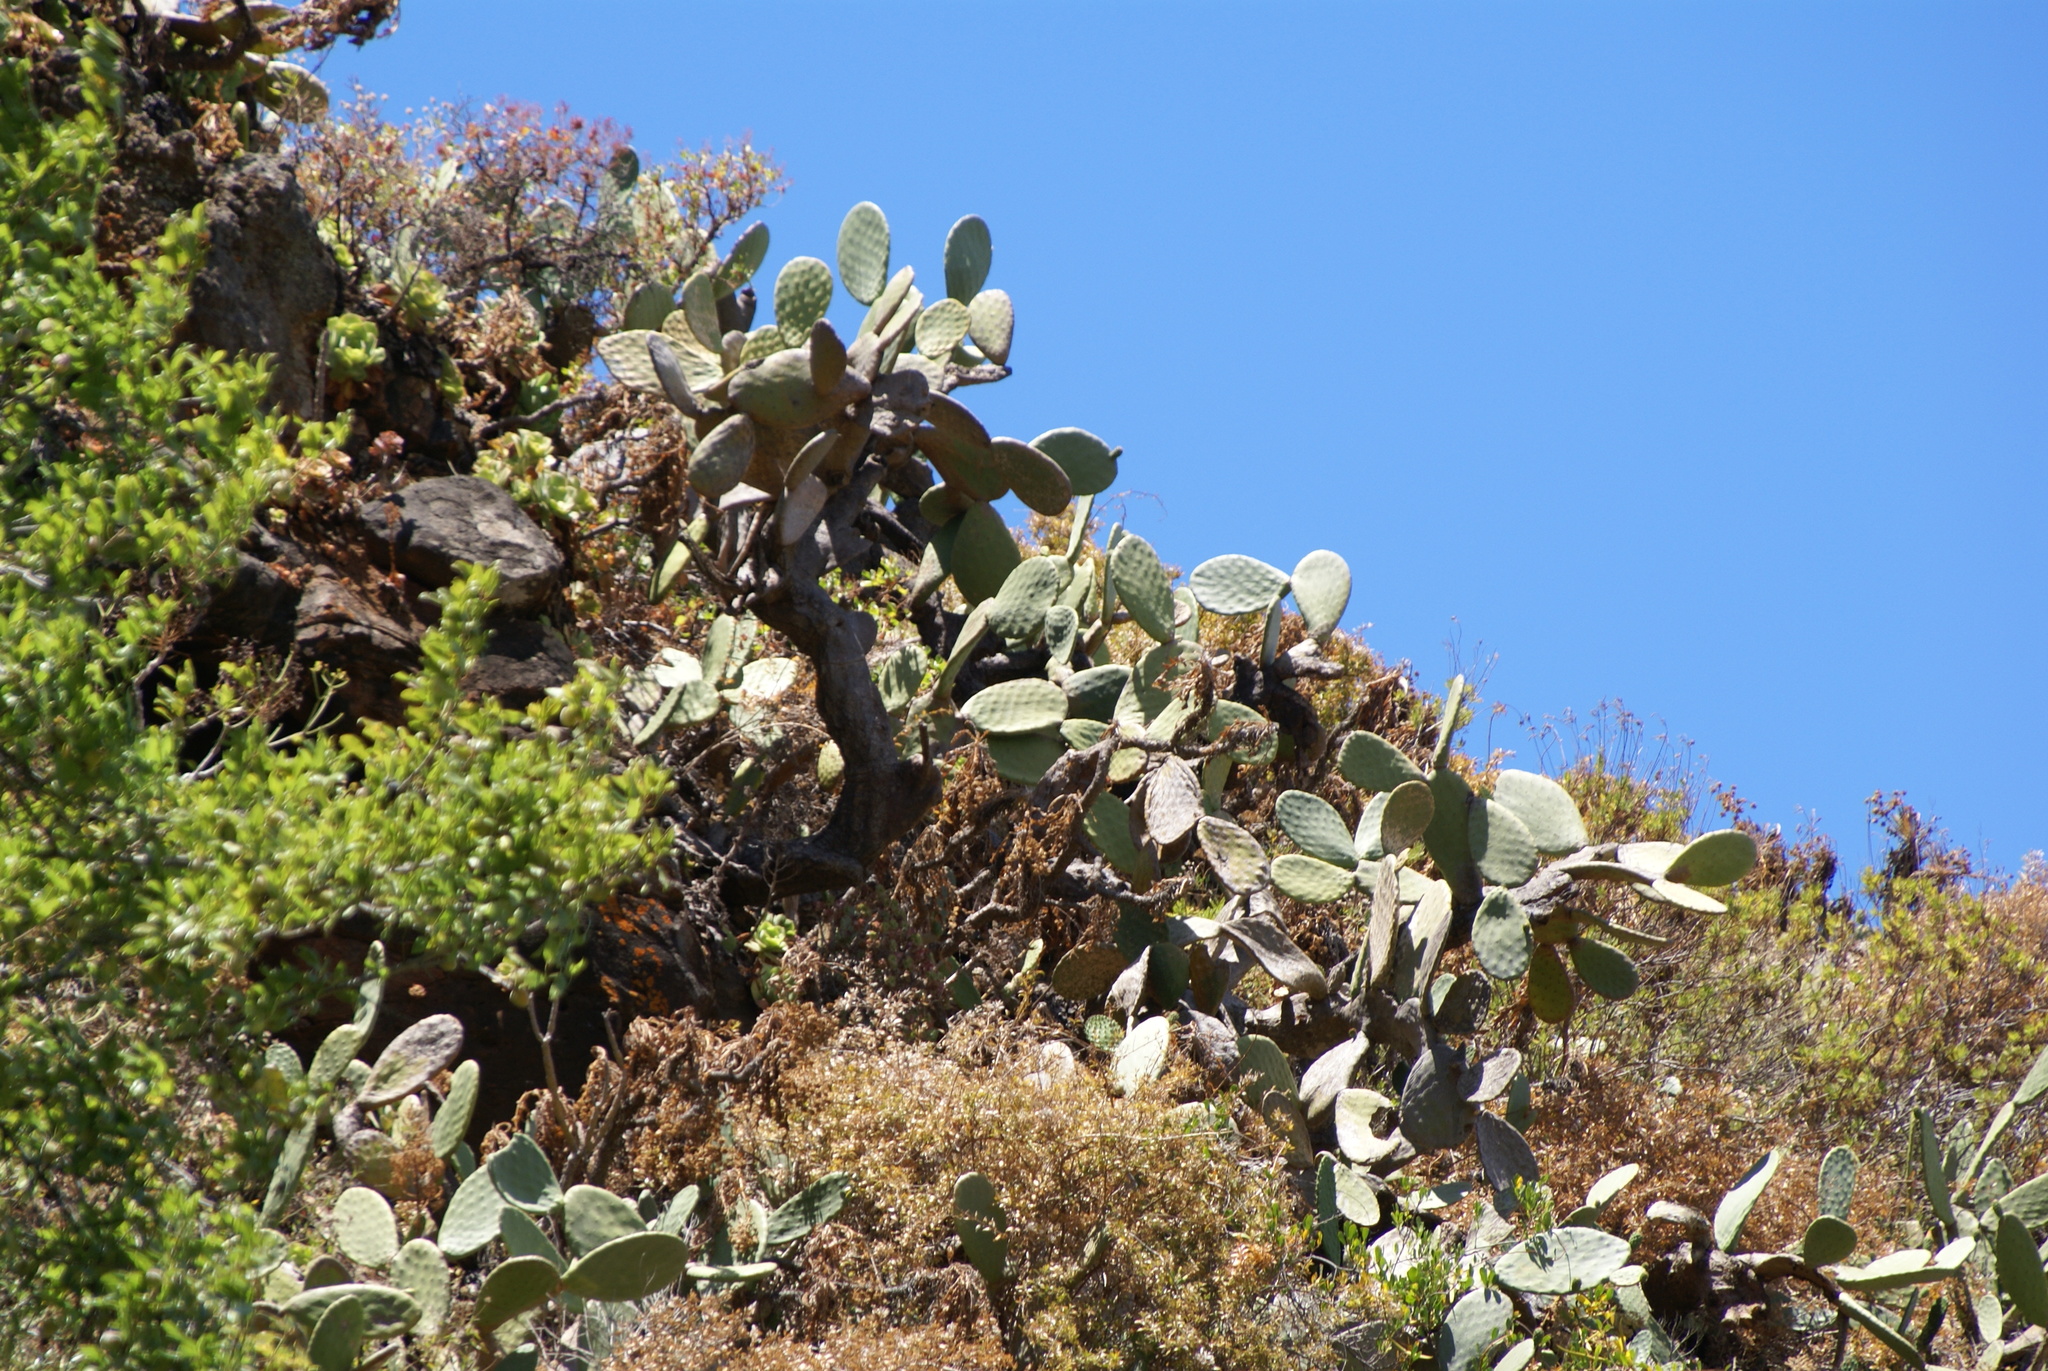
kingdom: Plantae
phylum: Tracheophyta
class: Magnoliopsida
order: Caryophyllales
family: Cactaceae
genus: Opuntia
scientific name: Opuntia ficus-indica
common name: Barbary fig
